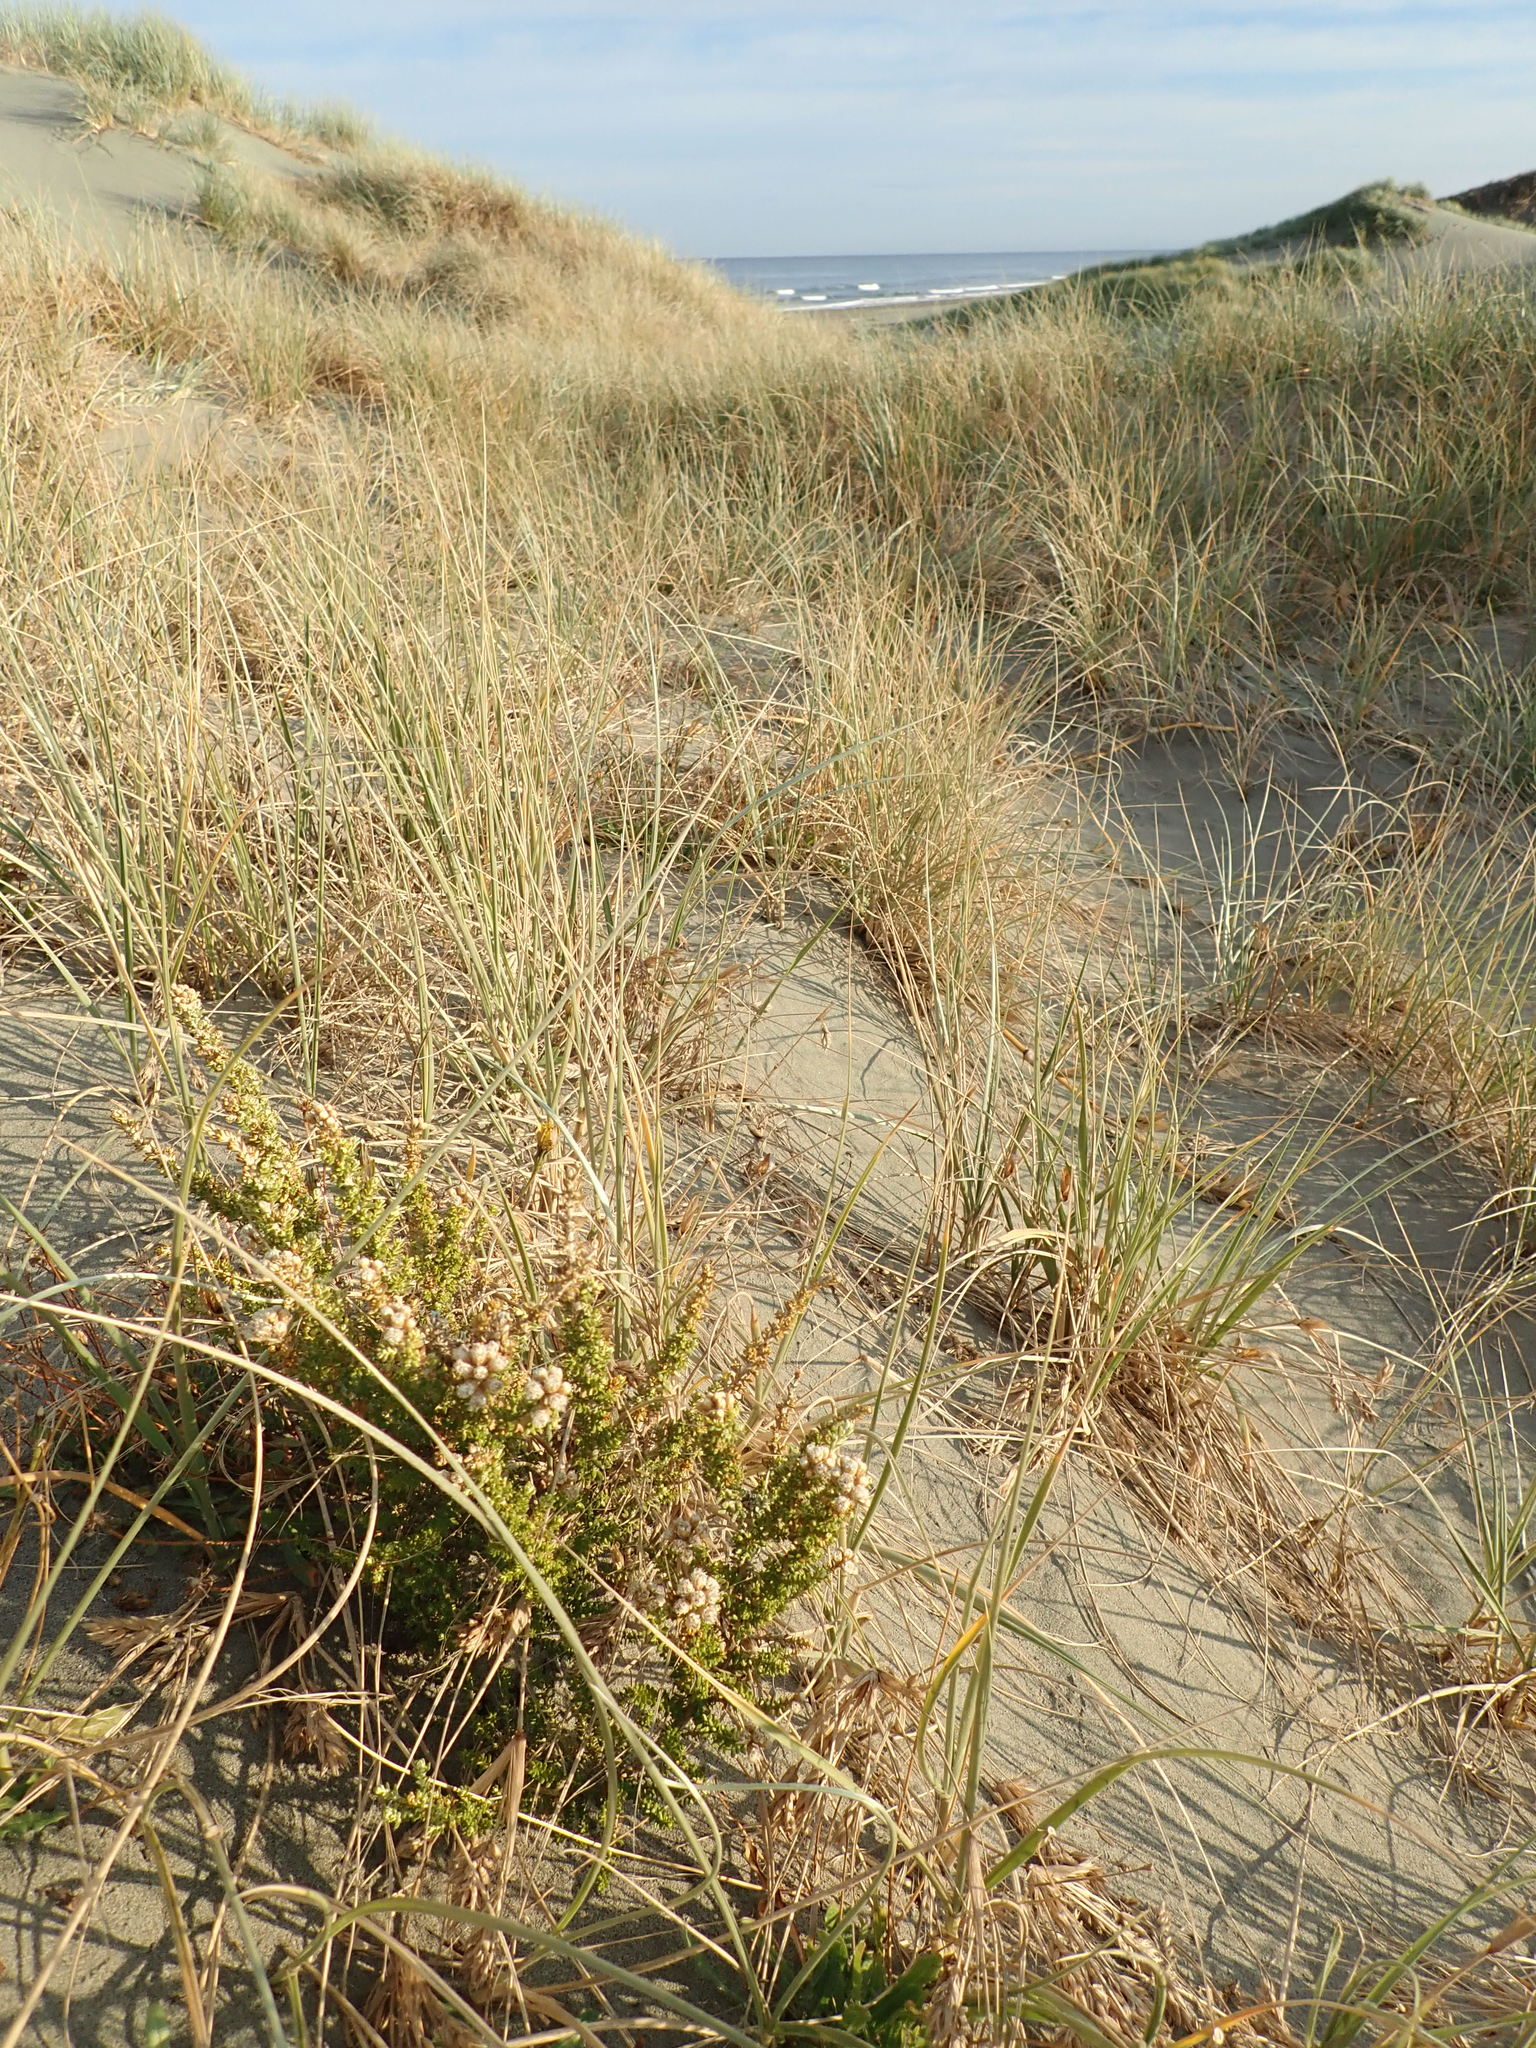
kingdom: Plantae
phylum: Tracheophyta
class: Magnoliopsida
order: Asterales
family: Asteraceae
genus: Ozothamnus
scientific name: Ozothamnus leptophyllus
